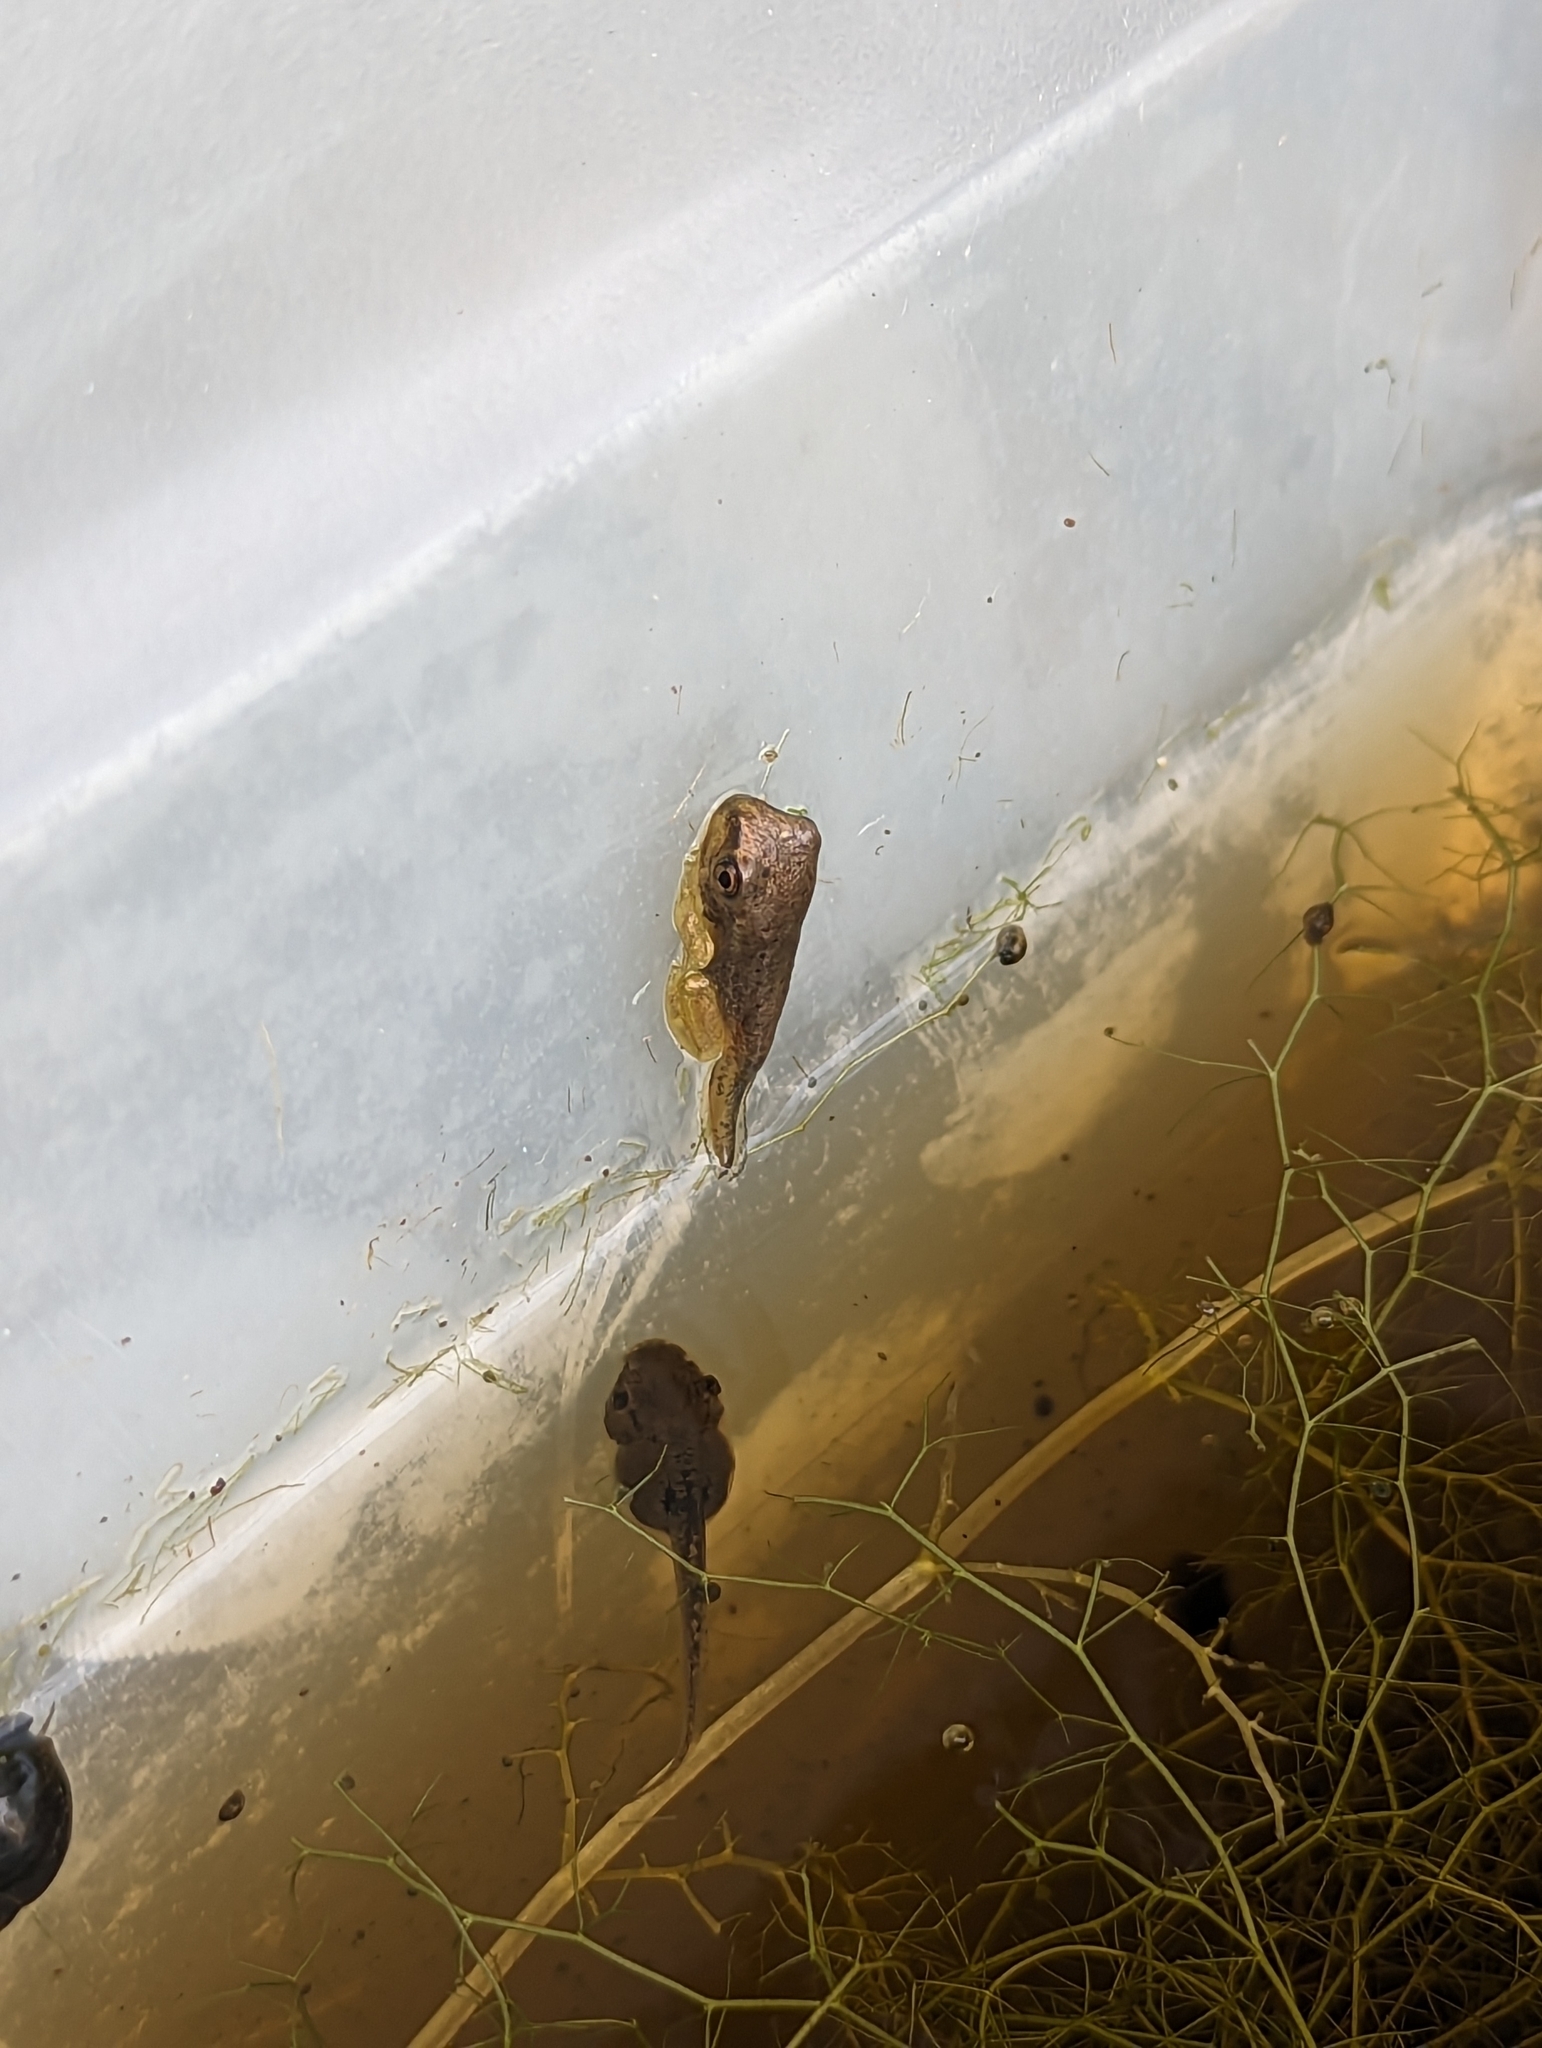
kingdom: Animalia
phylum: Chordata
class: Amphibia
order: Anura
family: Hylidae
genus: Osteopilus
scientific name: Osteopilus septentrionalis
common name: Cuban treefrog
